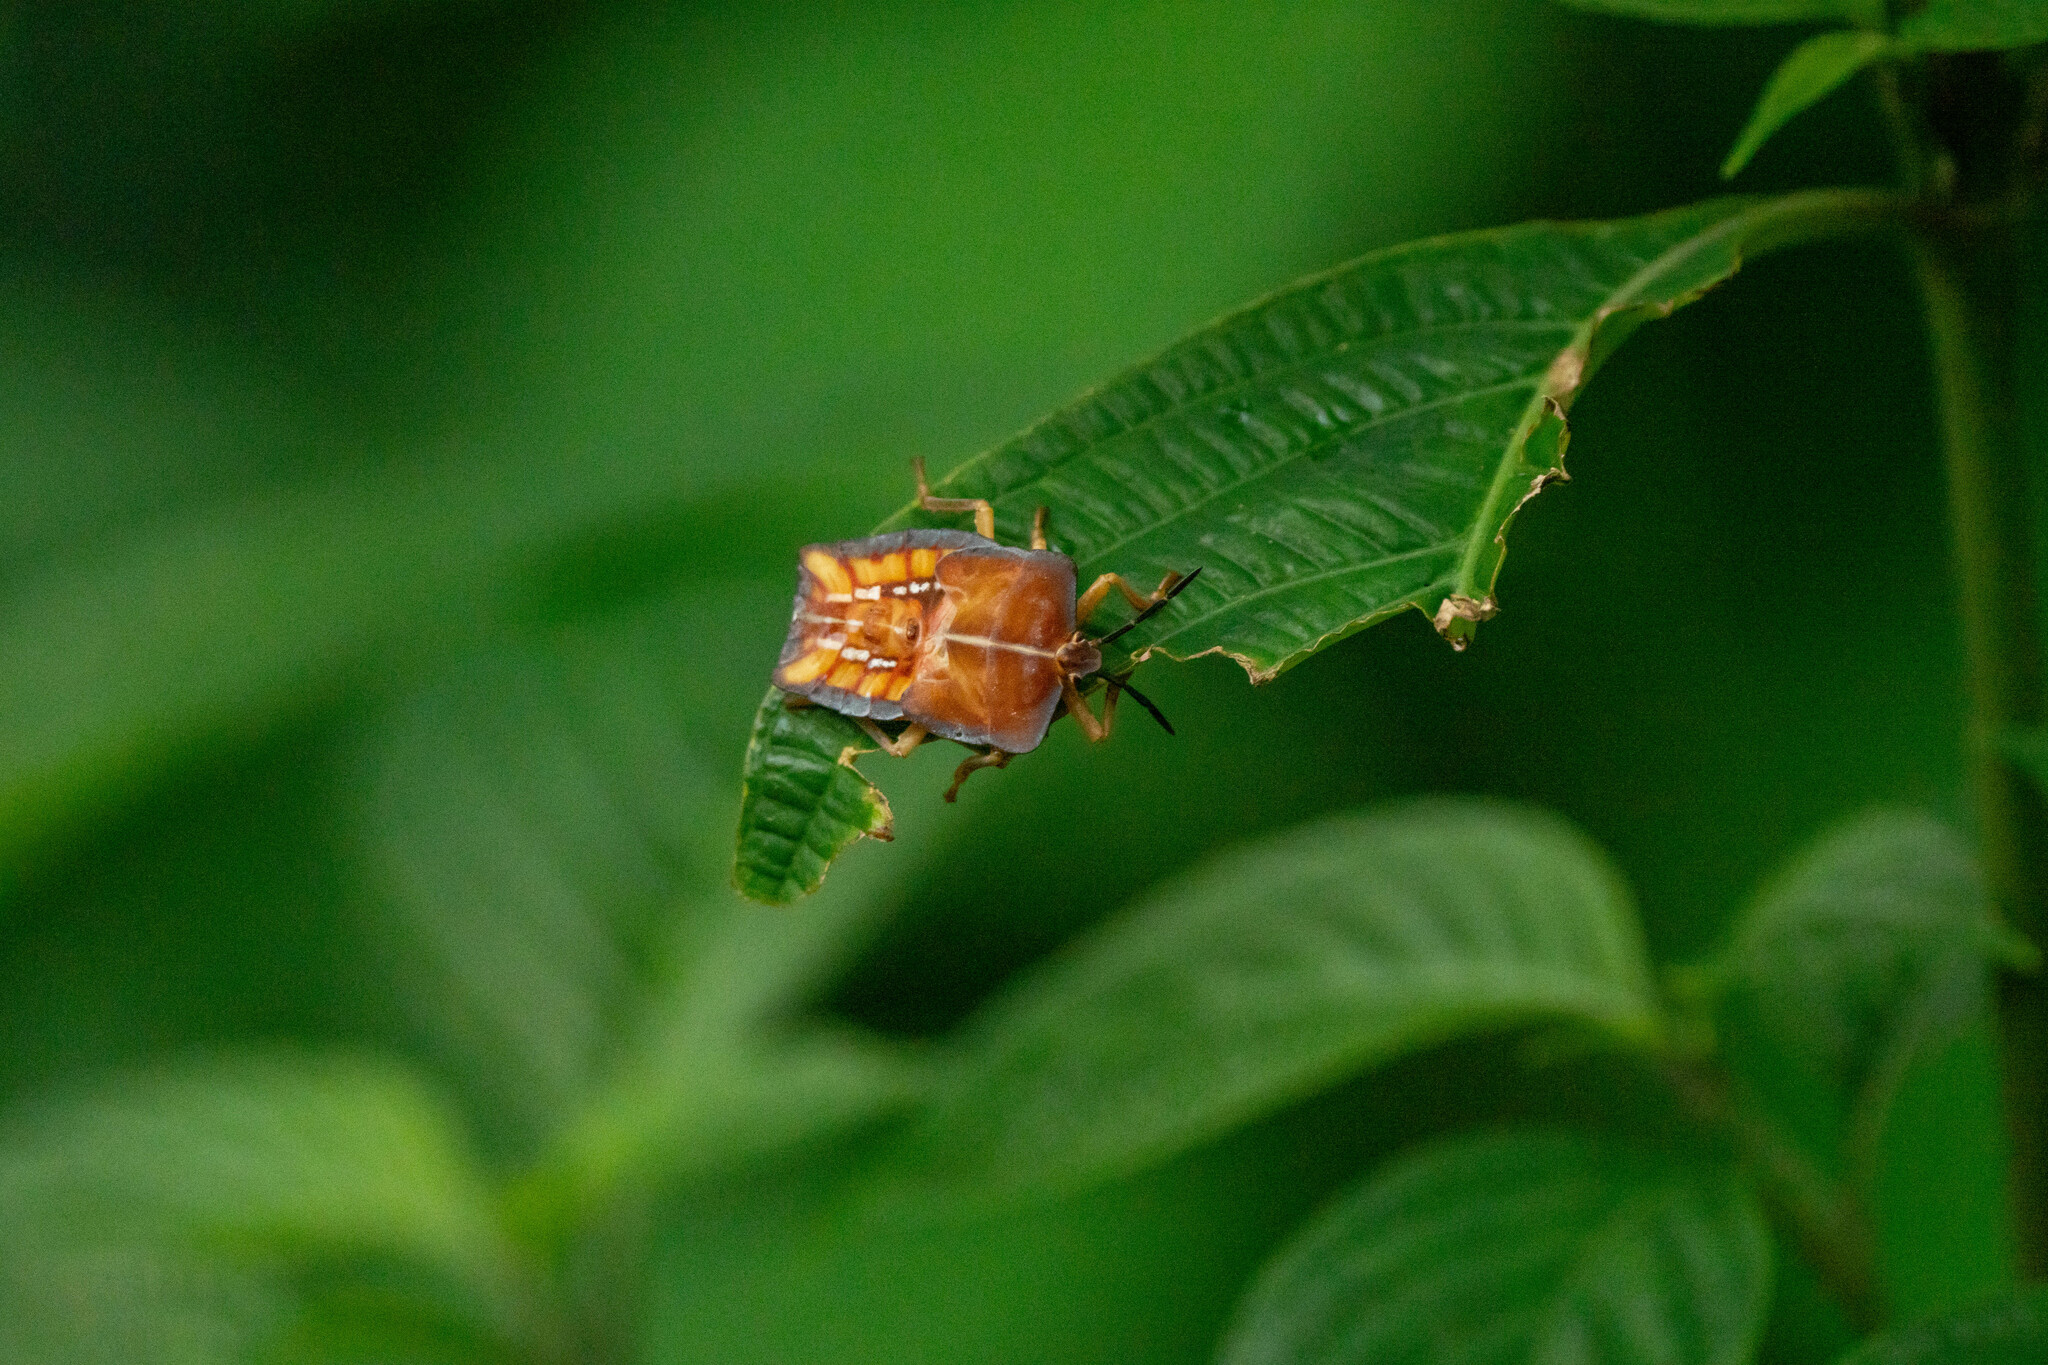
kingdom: Animalia
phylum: Arthropoda
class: Insecta
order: Hemiptera
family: Tessaratomidae
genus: Tessaratoma
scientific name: Tessaratoma papillosa
